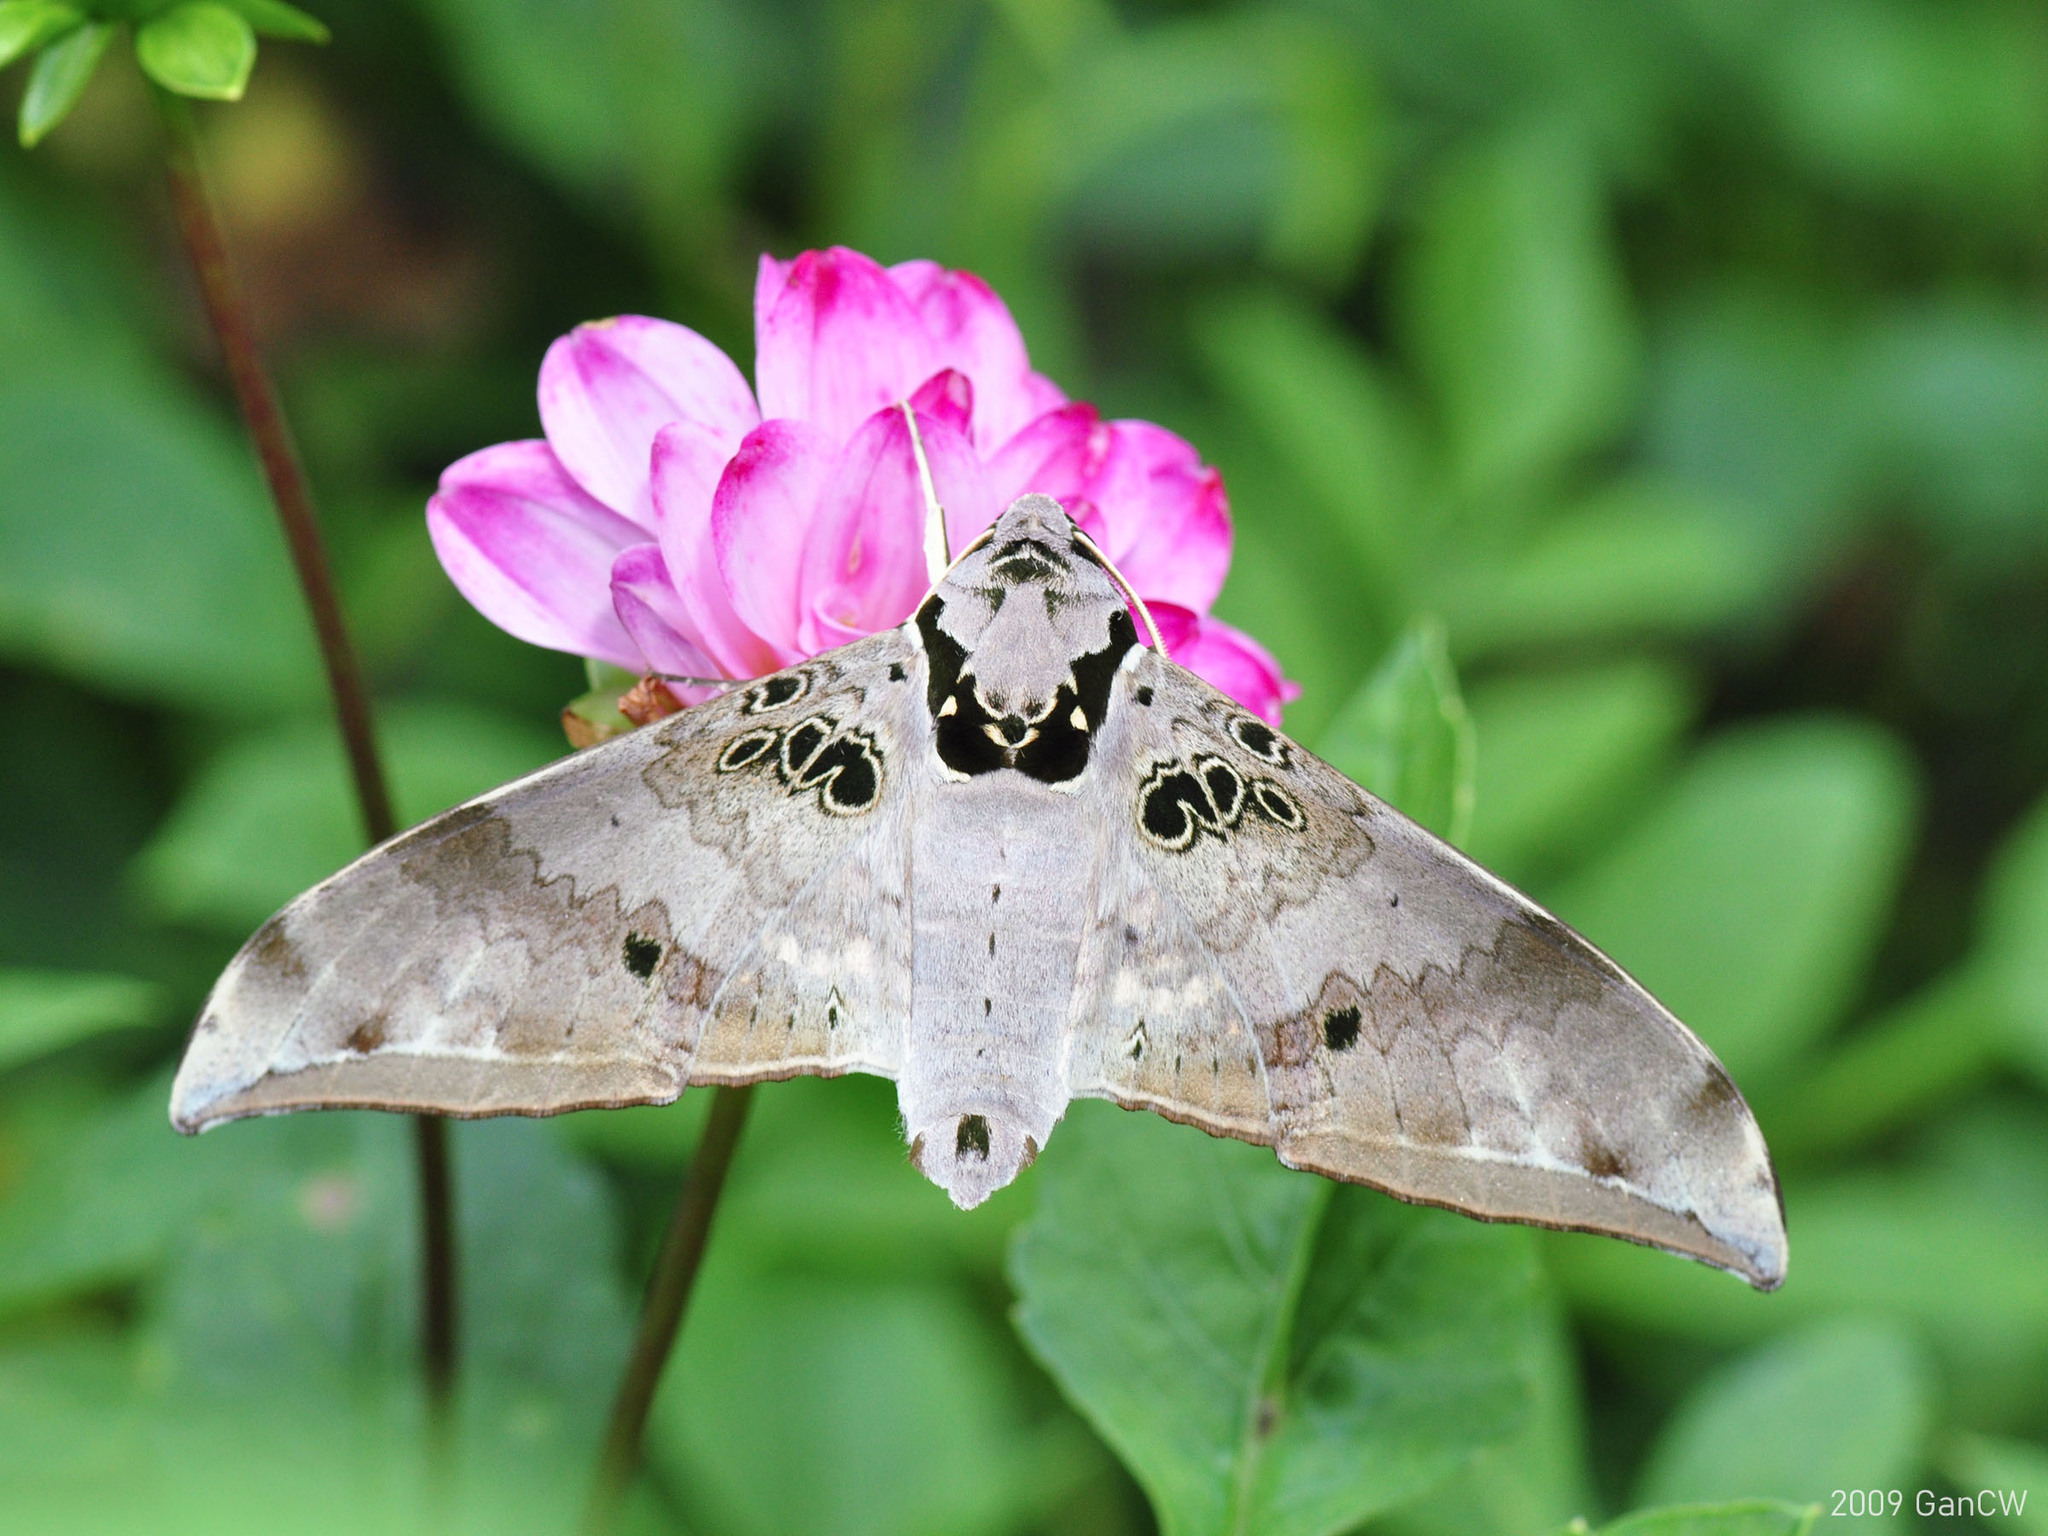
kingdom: Animalia
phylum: Arthropoda
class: Insecta
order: Lepidoptera
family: Sphingidae
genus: Ambulyx
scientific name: Ambulyx canescens
